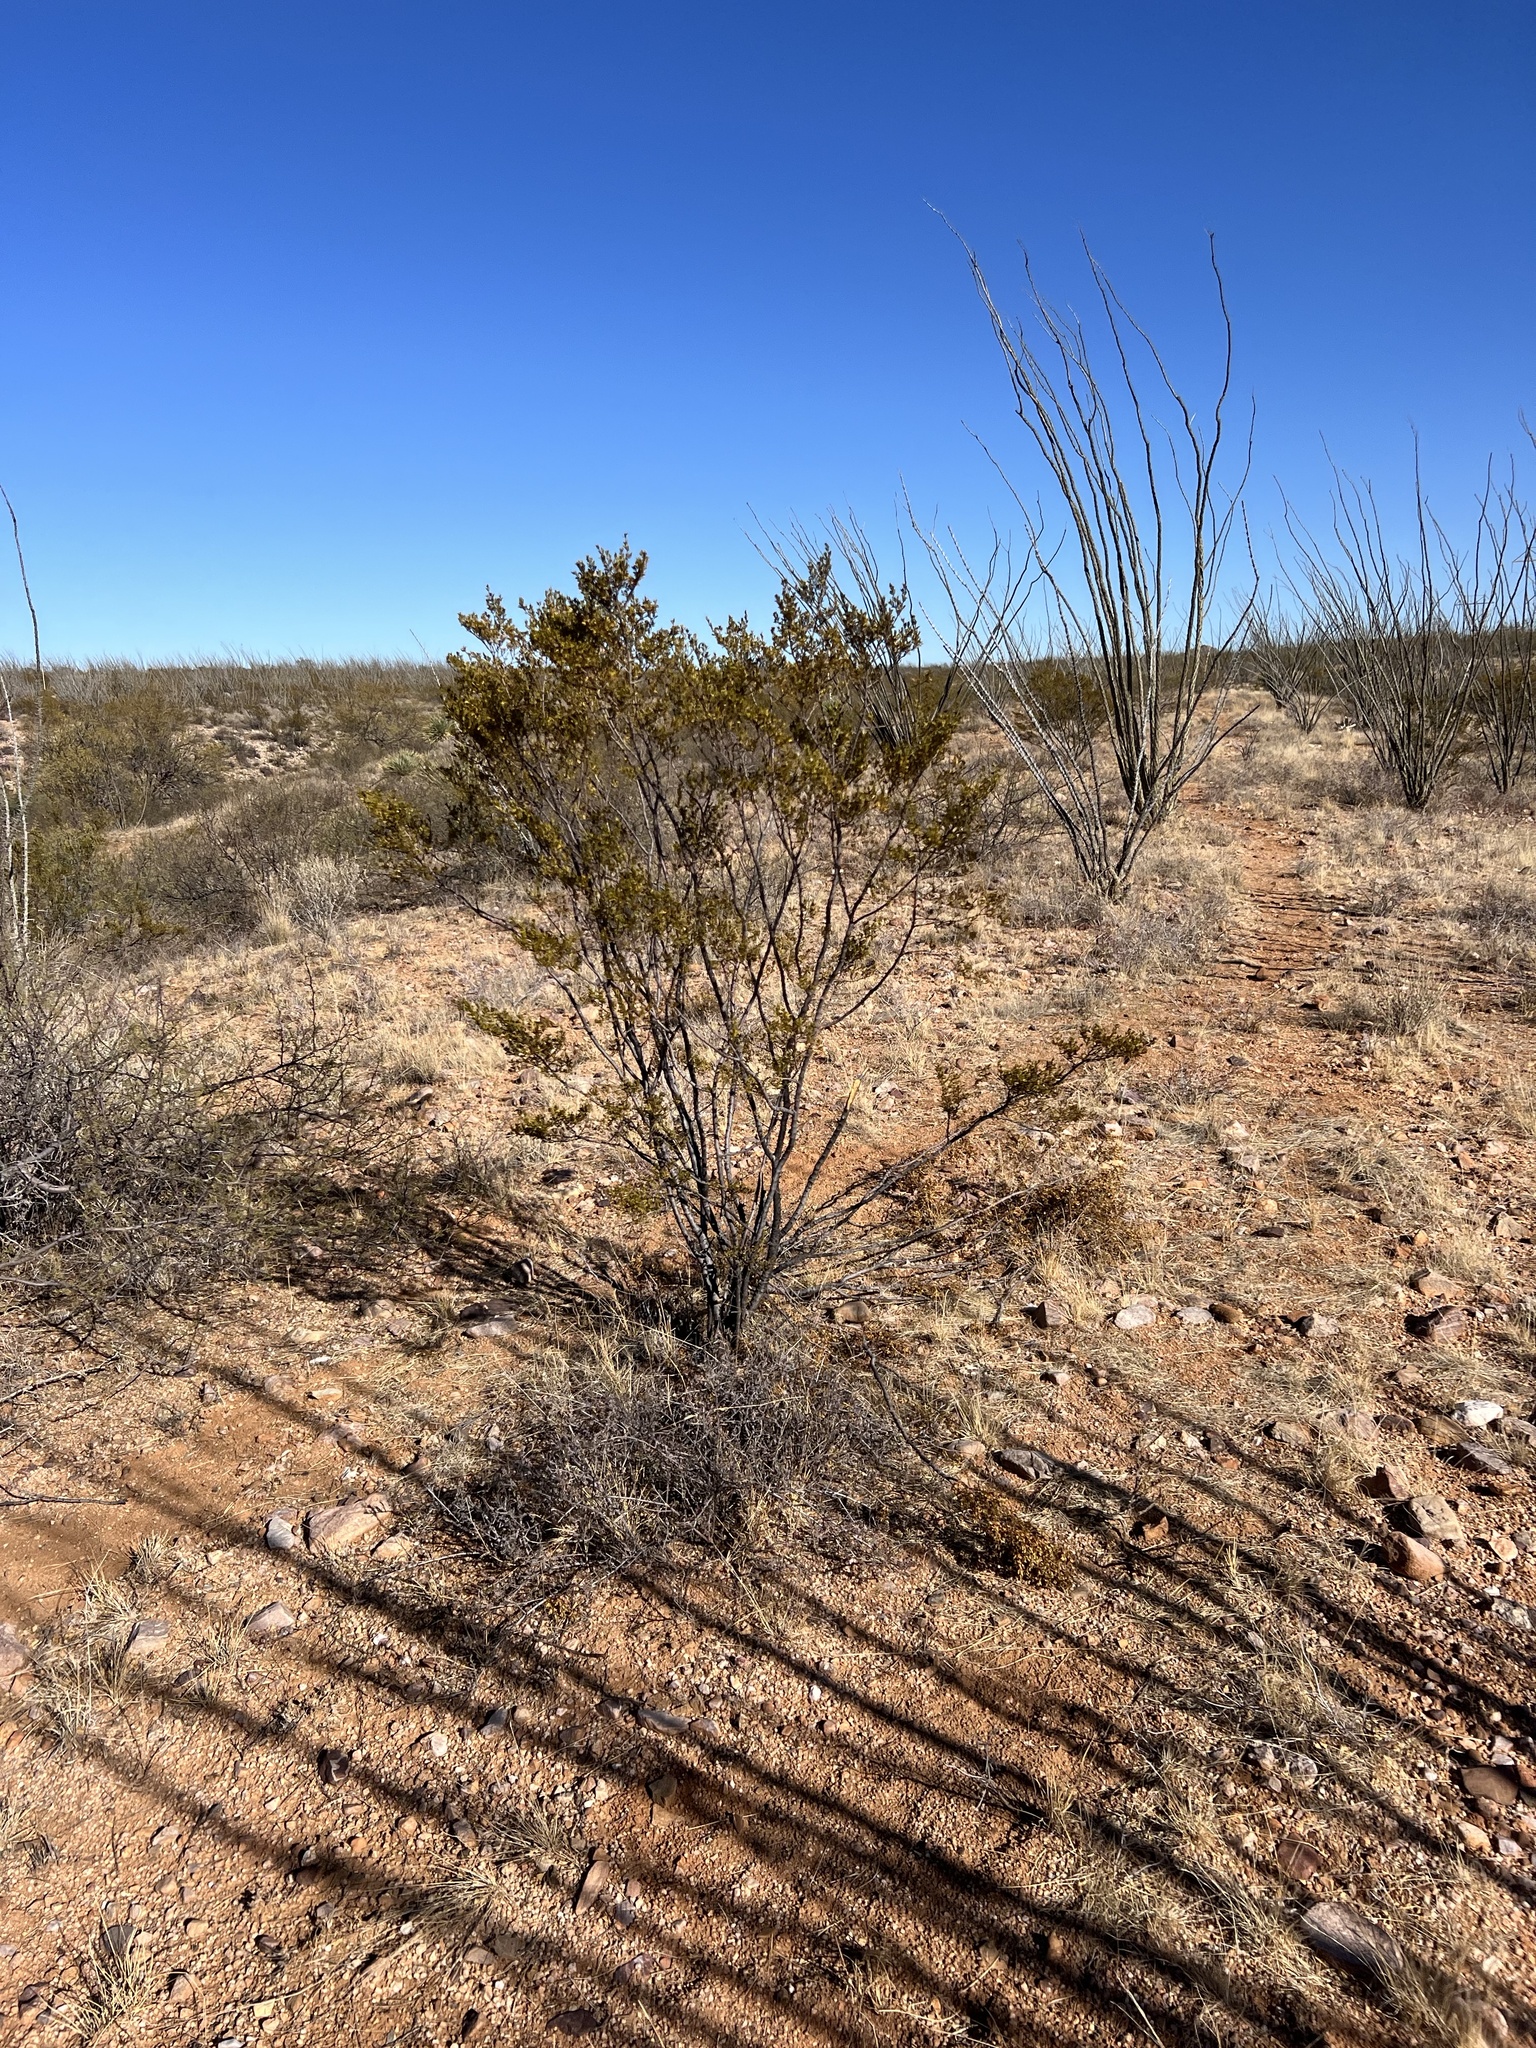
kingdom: Plantae
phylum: Tracheophyta
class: Magnoliopsida
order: Zygophyllales
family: Zygophyllaceae
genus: Larrea
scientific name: Larrea tridentata
